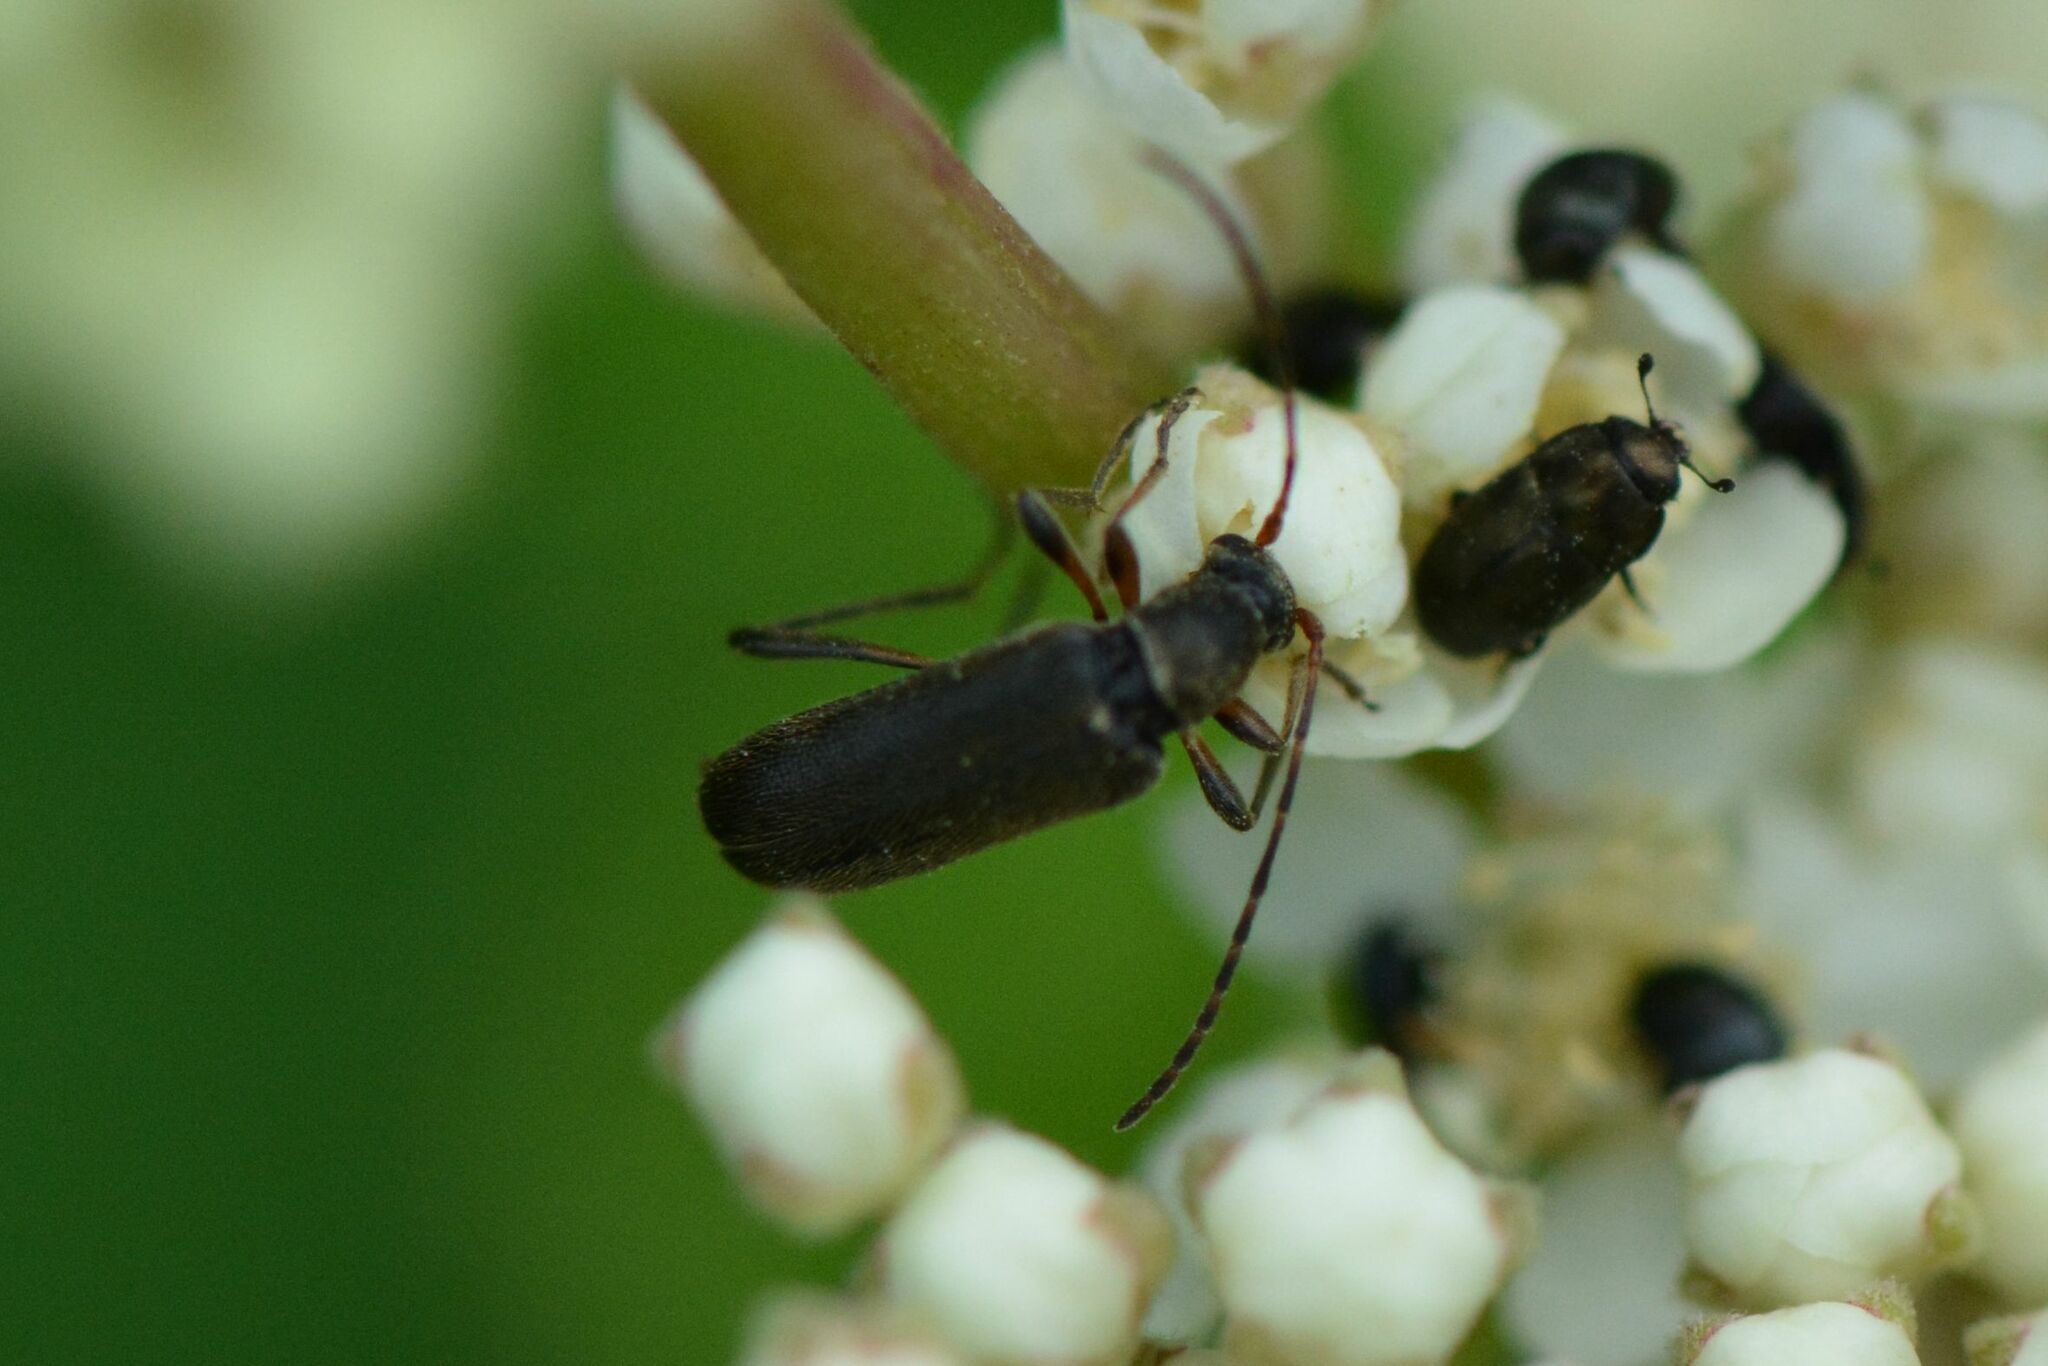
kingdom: Animalia
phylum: Arthropoda
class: Insecta
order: Coleoptera
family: Cerambycidae
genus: Grammoptera
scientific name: Grammoptera ruficornis
